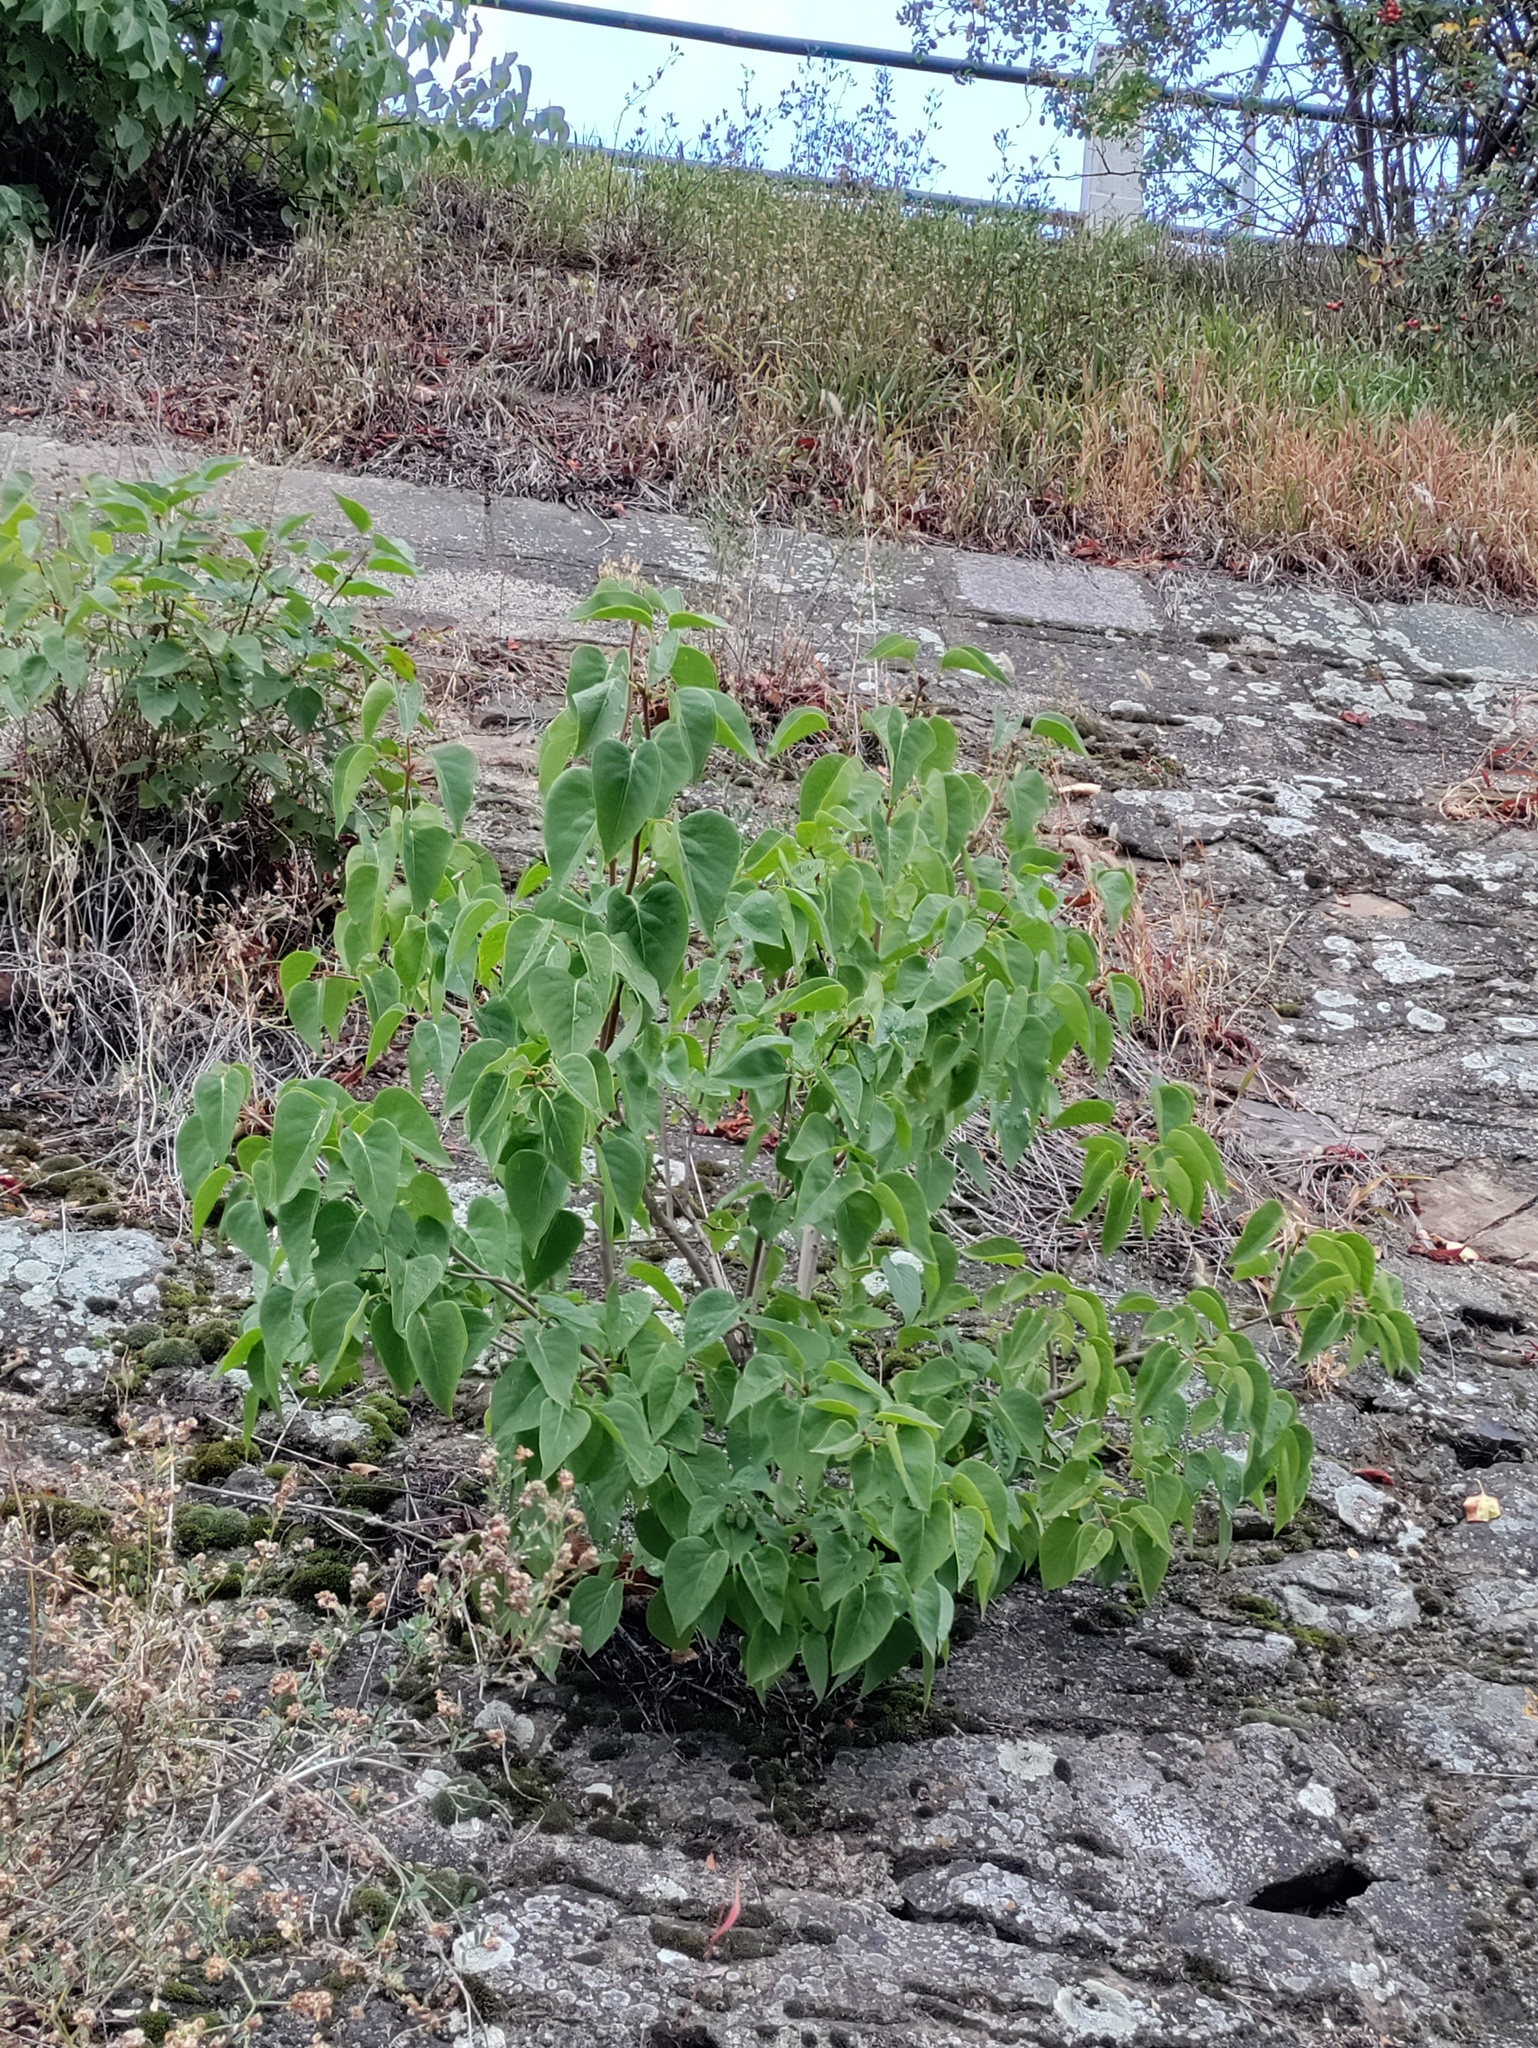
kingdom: Plantae
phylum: Tracheophyta
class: Magnoliopsida
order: Lamiales
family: Oleaceae
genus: Syringa
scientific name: Syringa vulgaris
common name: Common lilac
